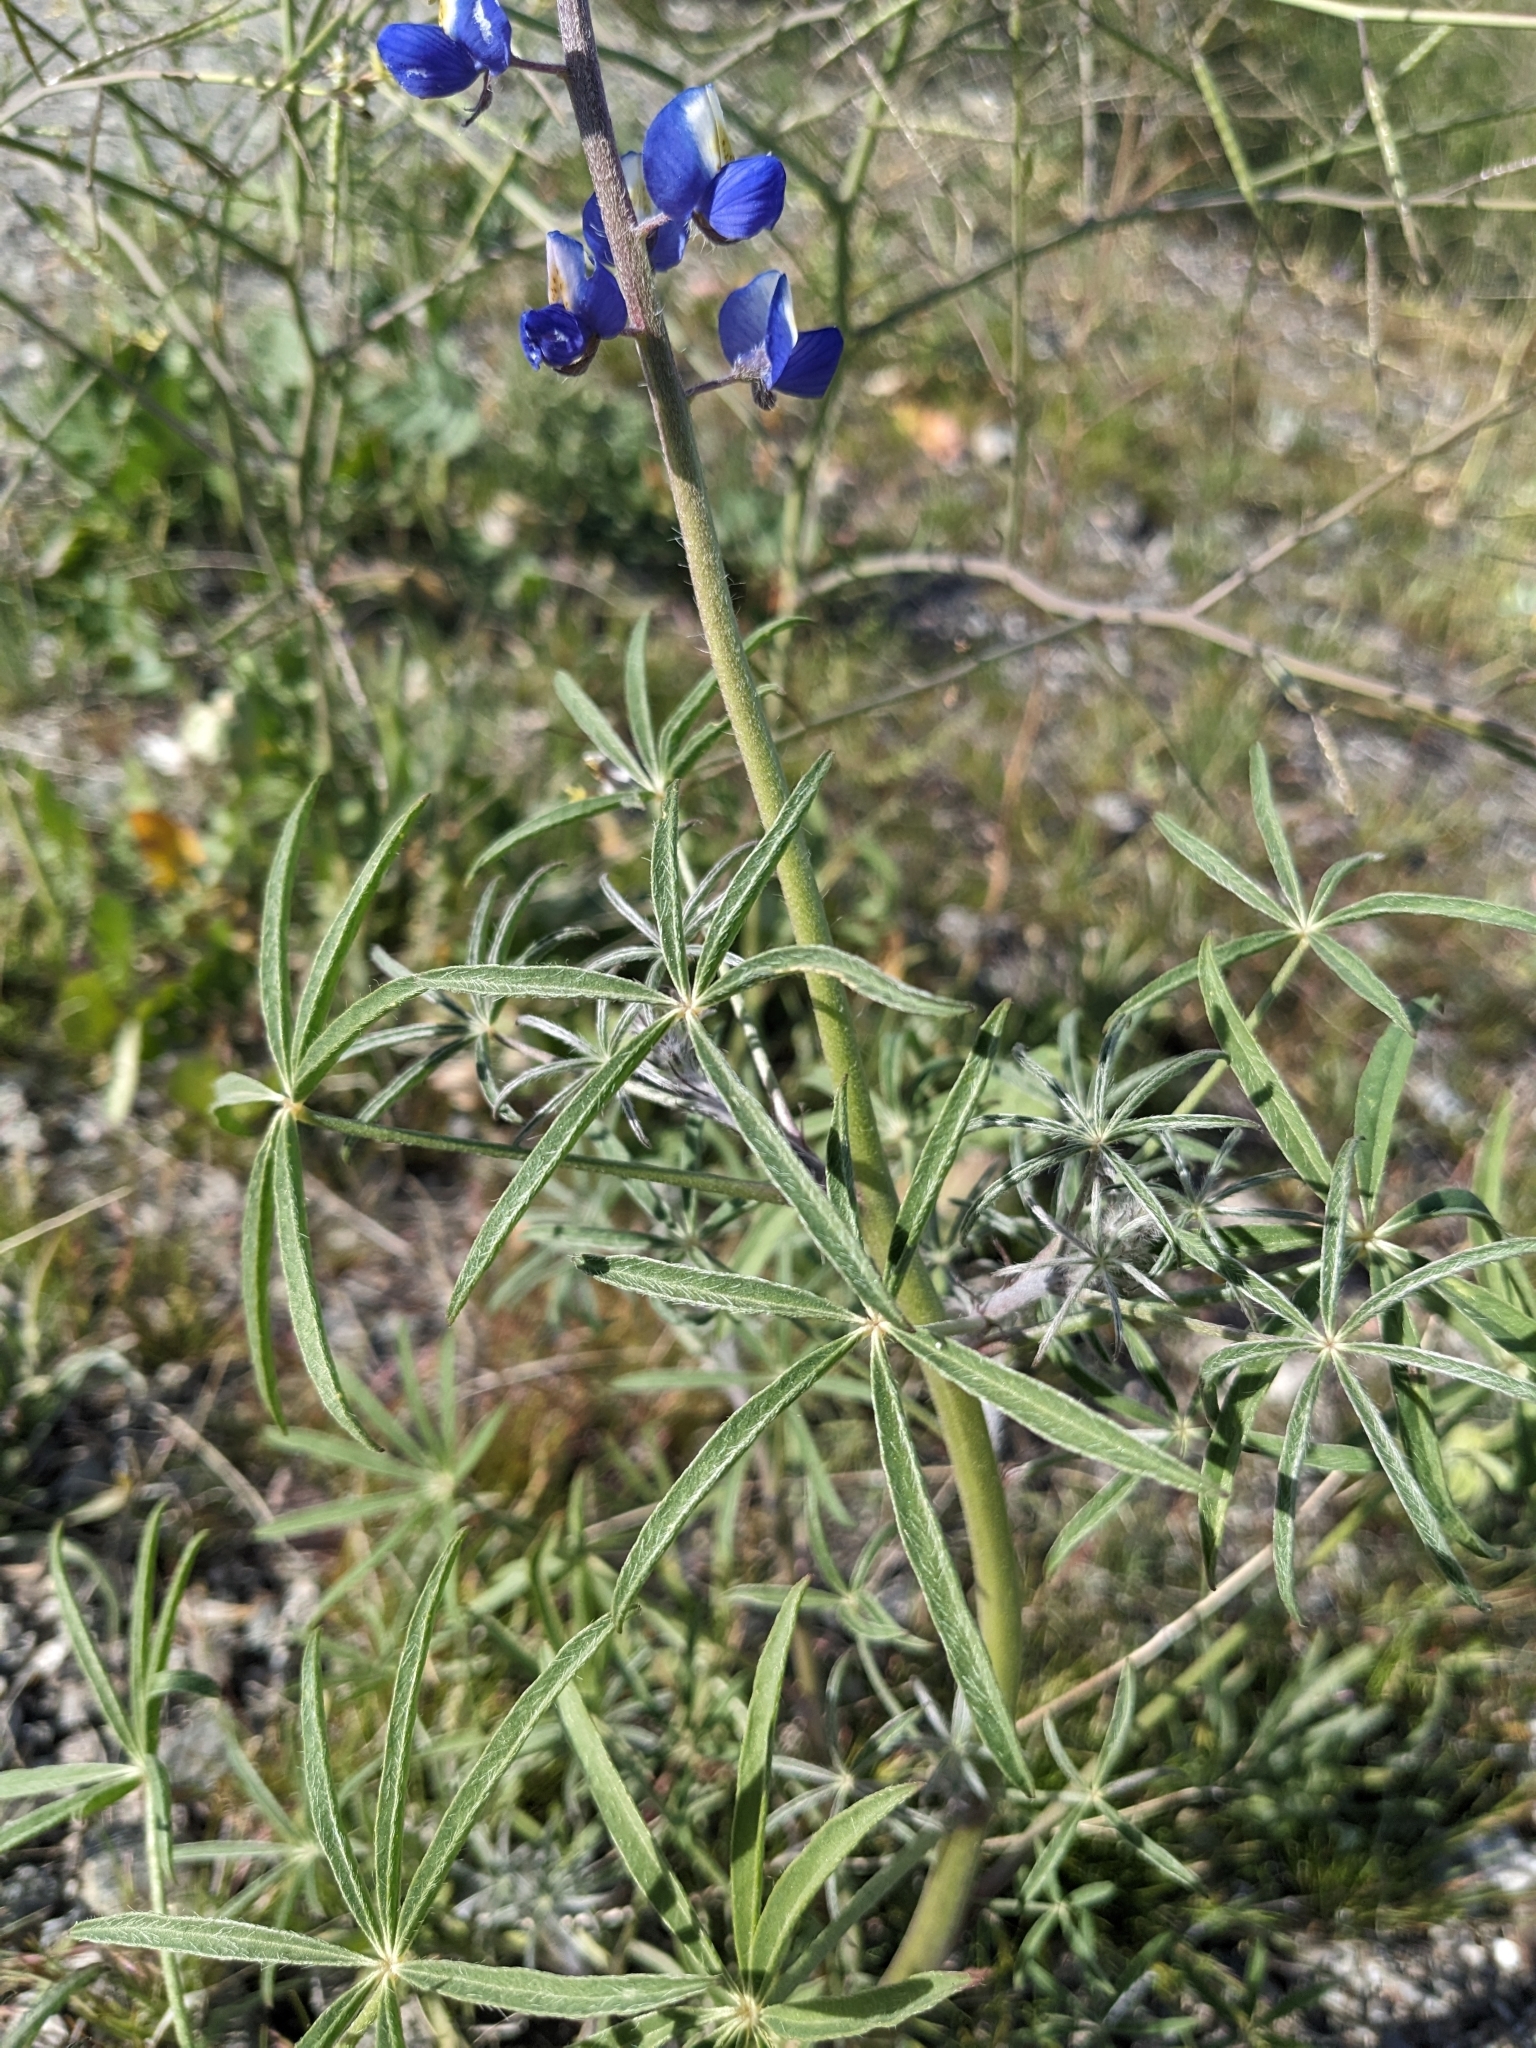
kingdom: Plantae
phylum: Tracheophyta
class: Magnoliopsida
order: Fabales
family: Fabaceae
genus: Lupinus
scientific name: Lupinus sparsiflorus
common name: Coulter's lupine
